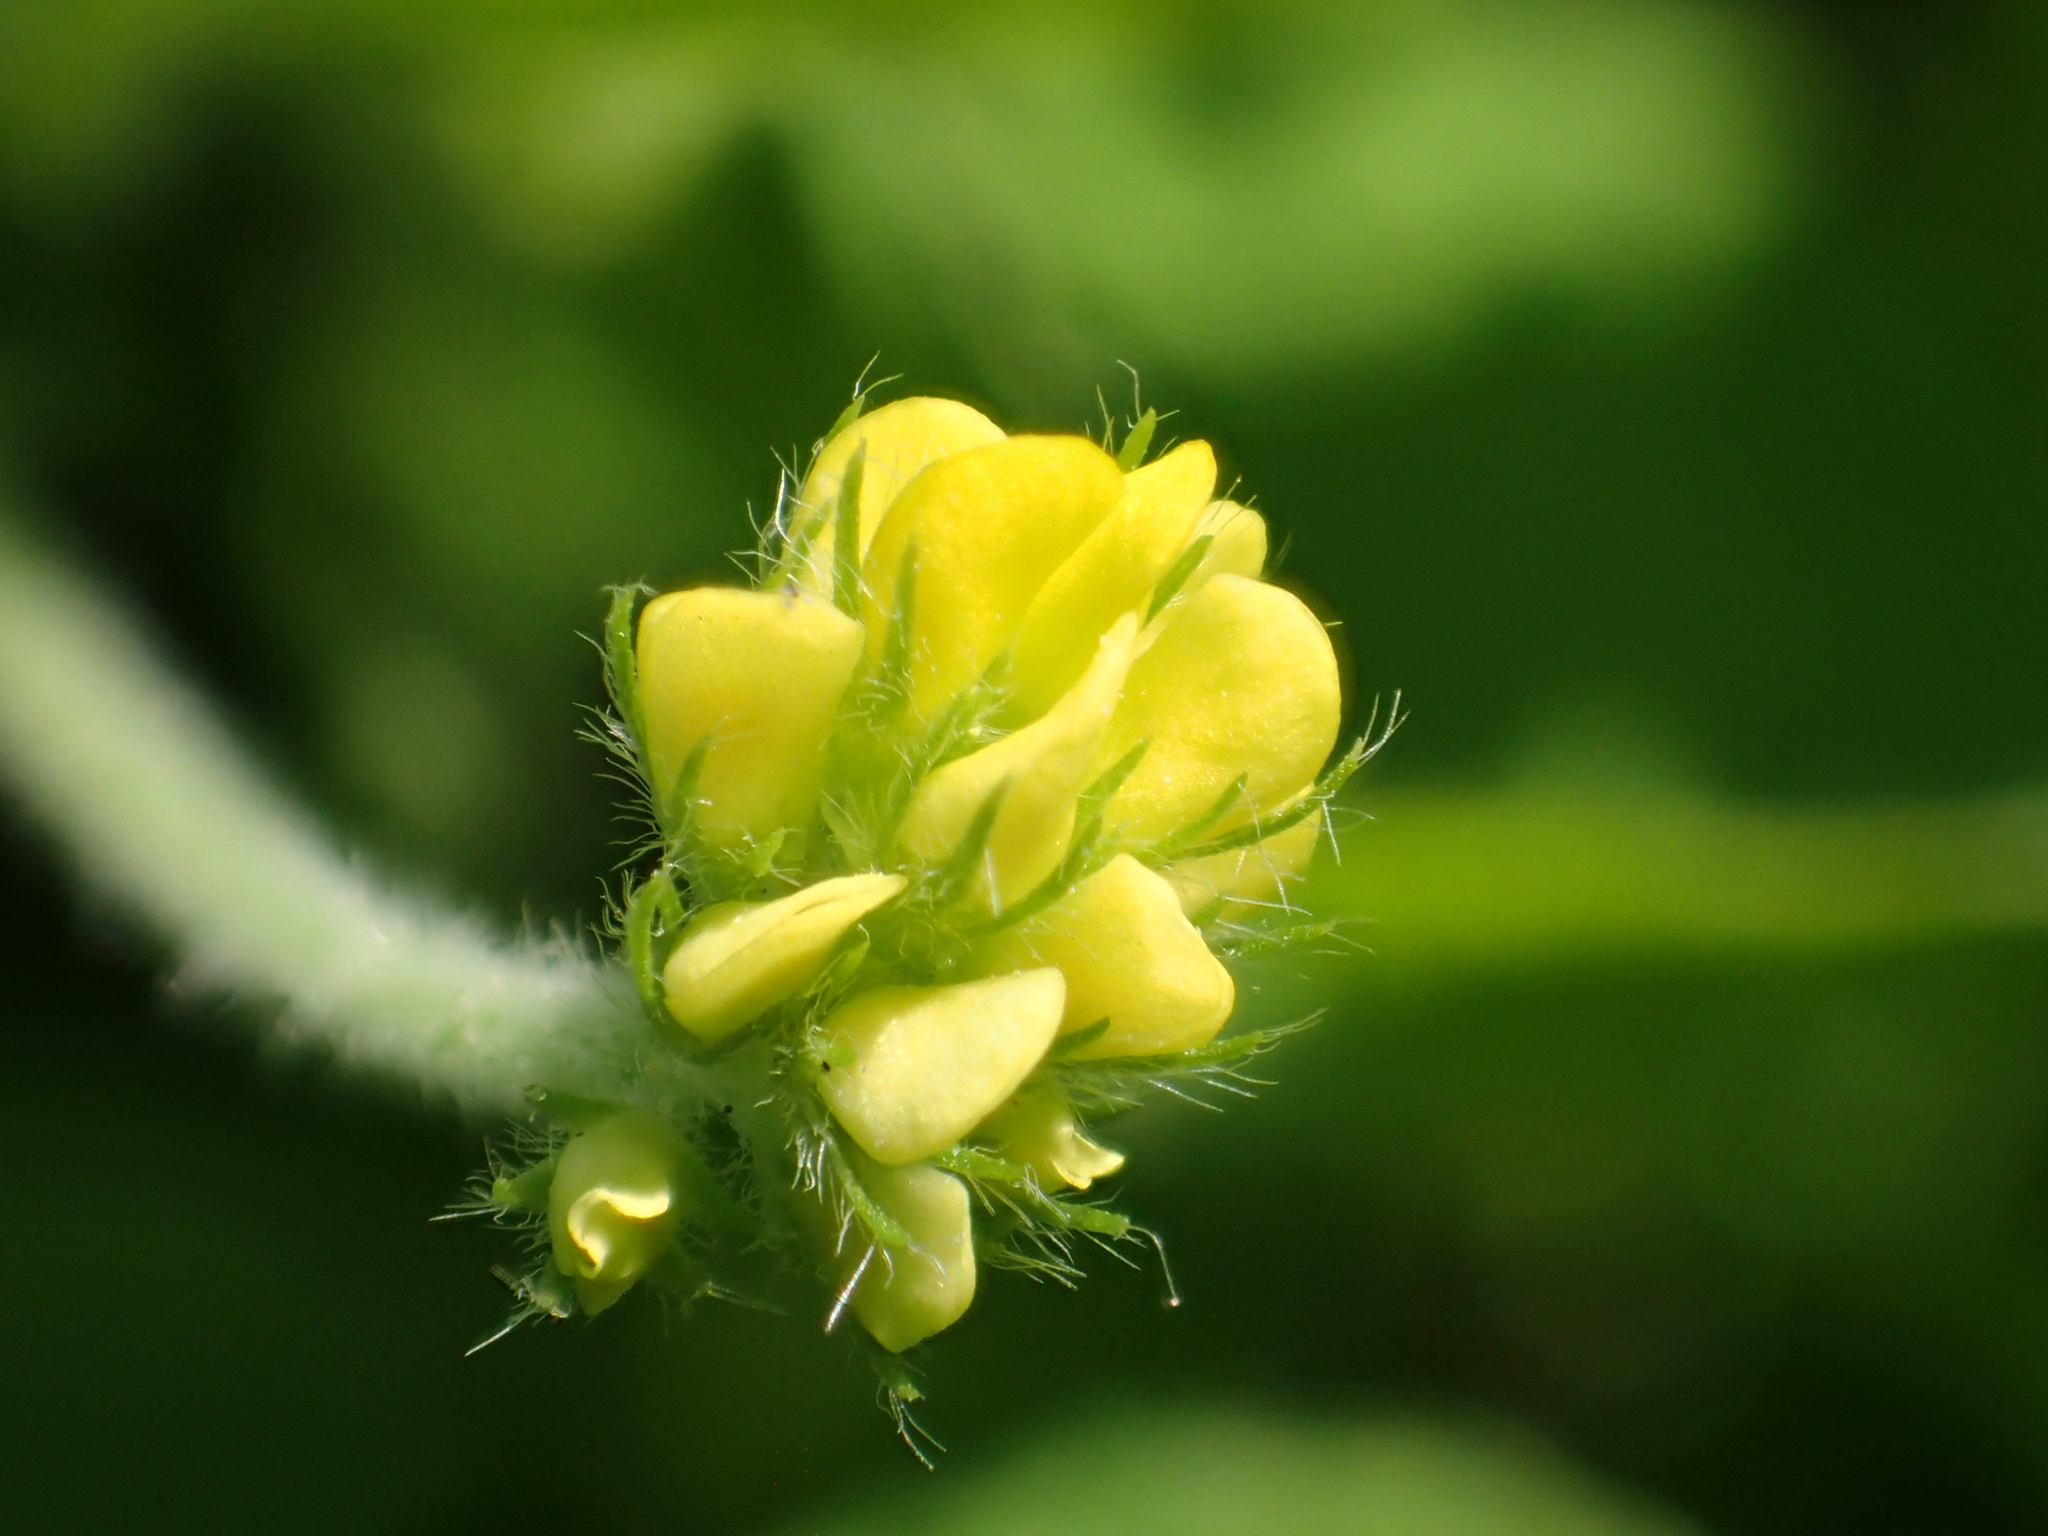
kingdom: Plantae
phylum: Tracheophyta
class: Magnoliopsida
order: Fabales
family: Fabaceae
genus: Medicago
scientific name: Medicago lupulina
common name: Black medick
